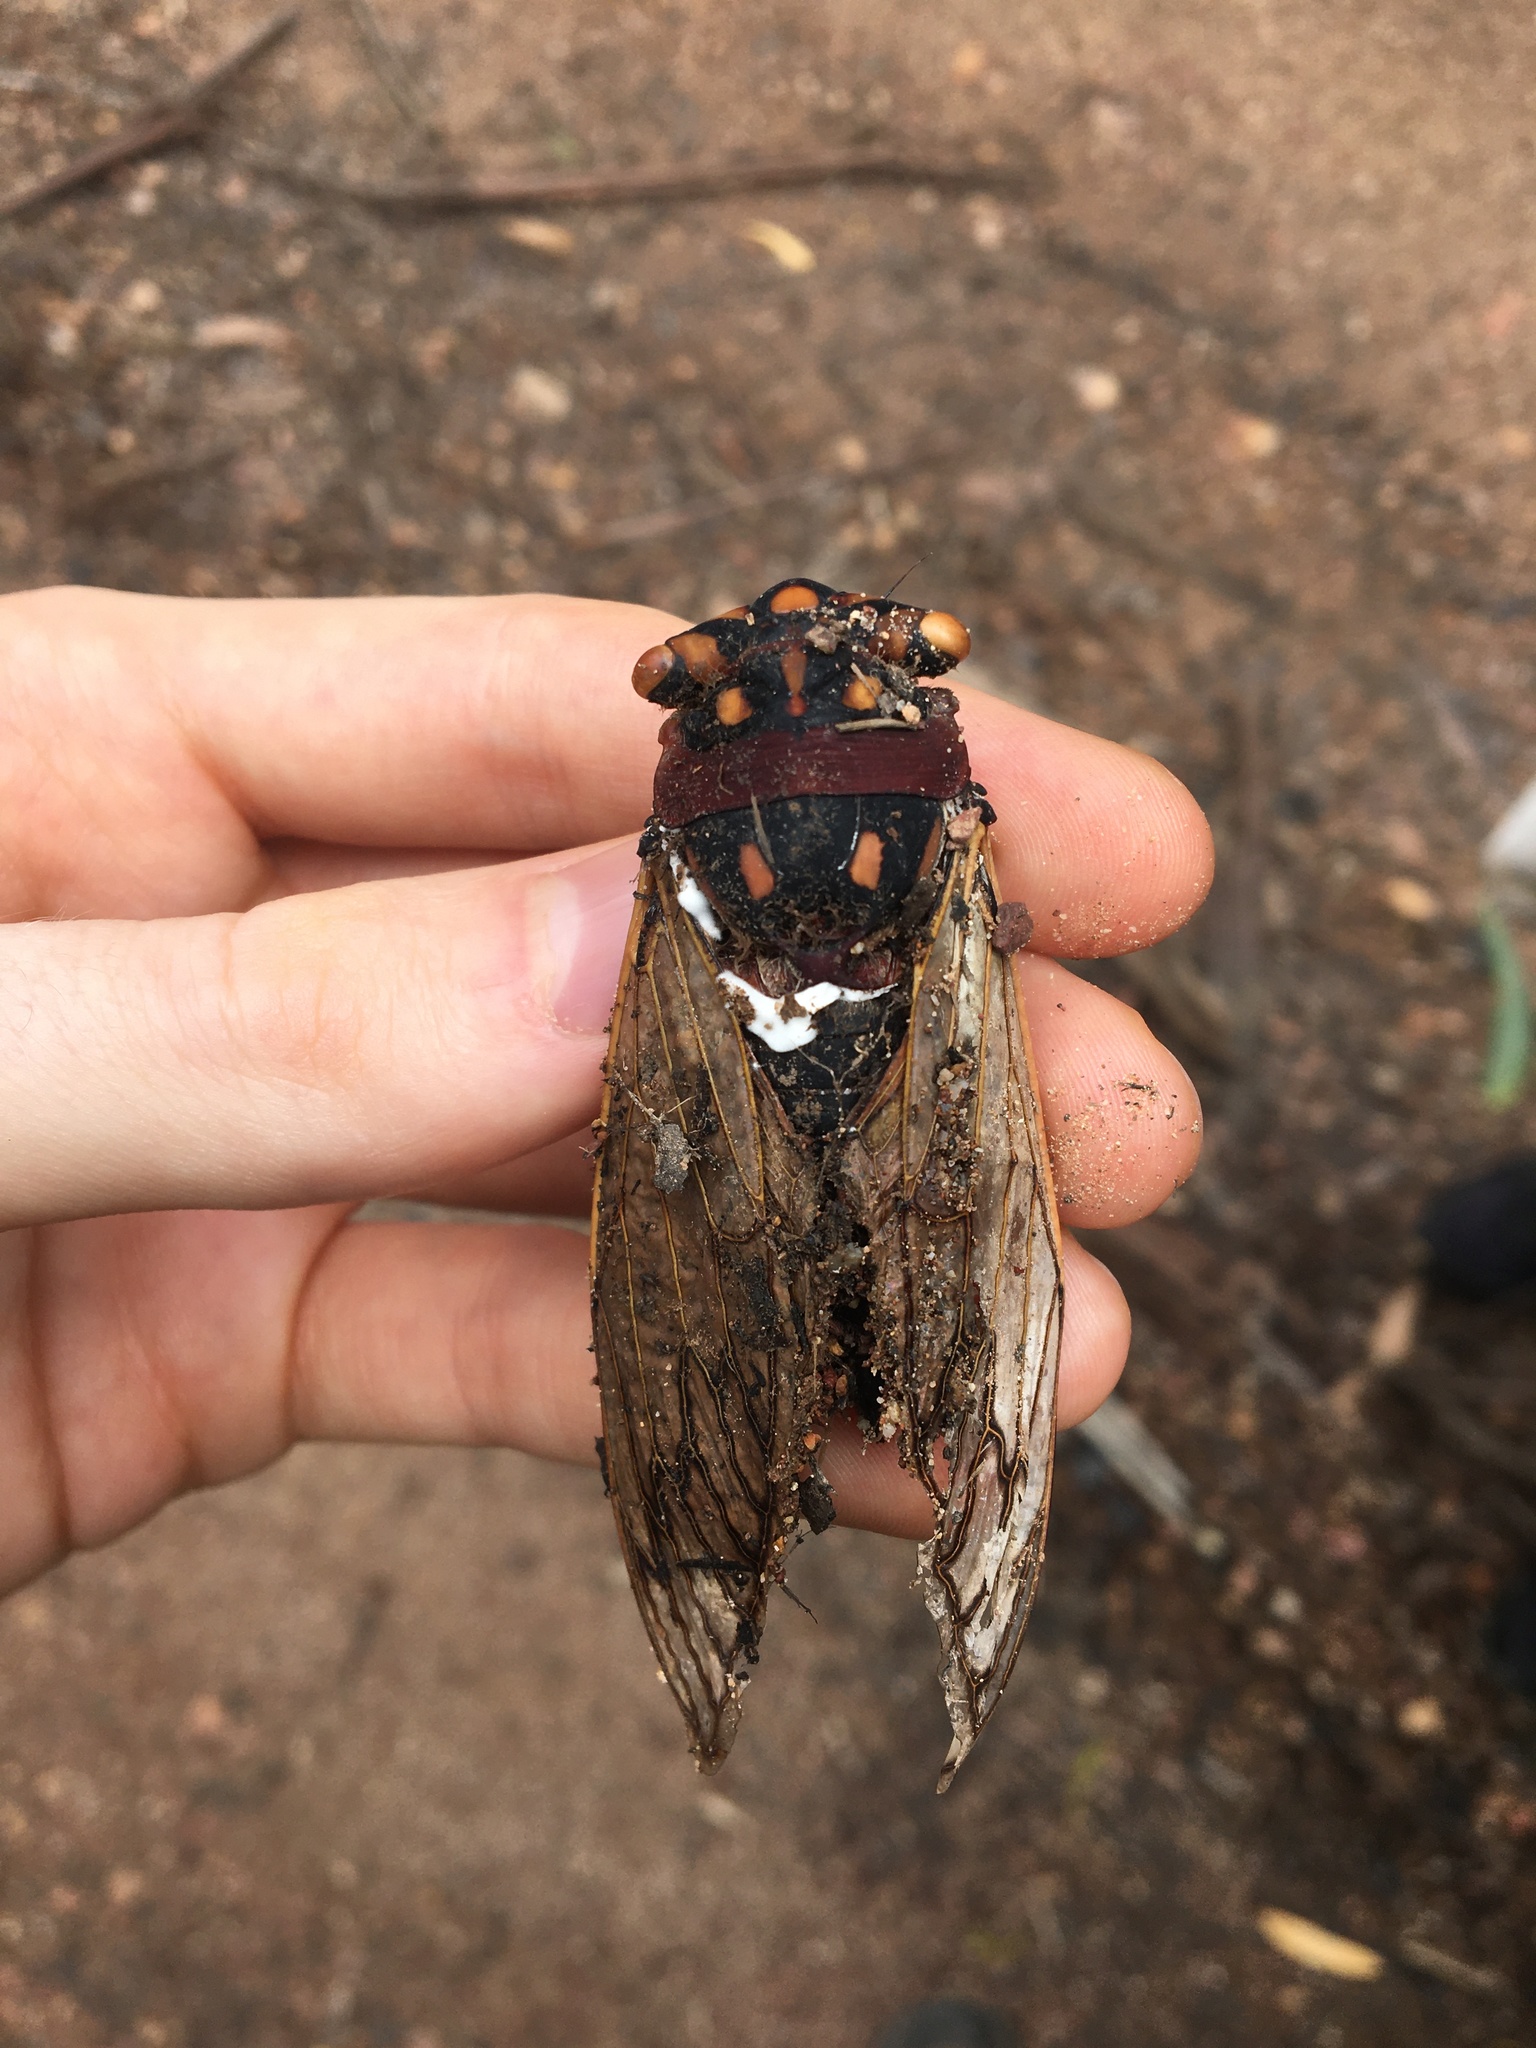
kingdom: Animalia
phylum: Arthropoda
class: Insecta
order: Hemiptera
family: Cicadidae
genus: Macrotristria
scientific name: Macrotristria angularis
